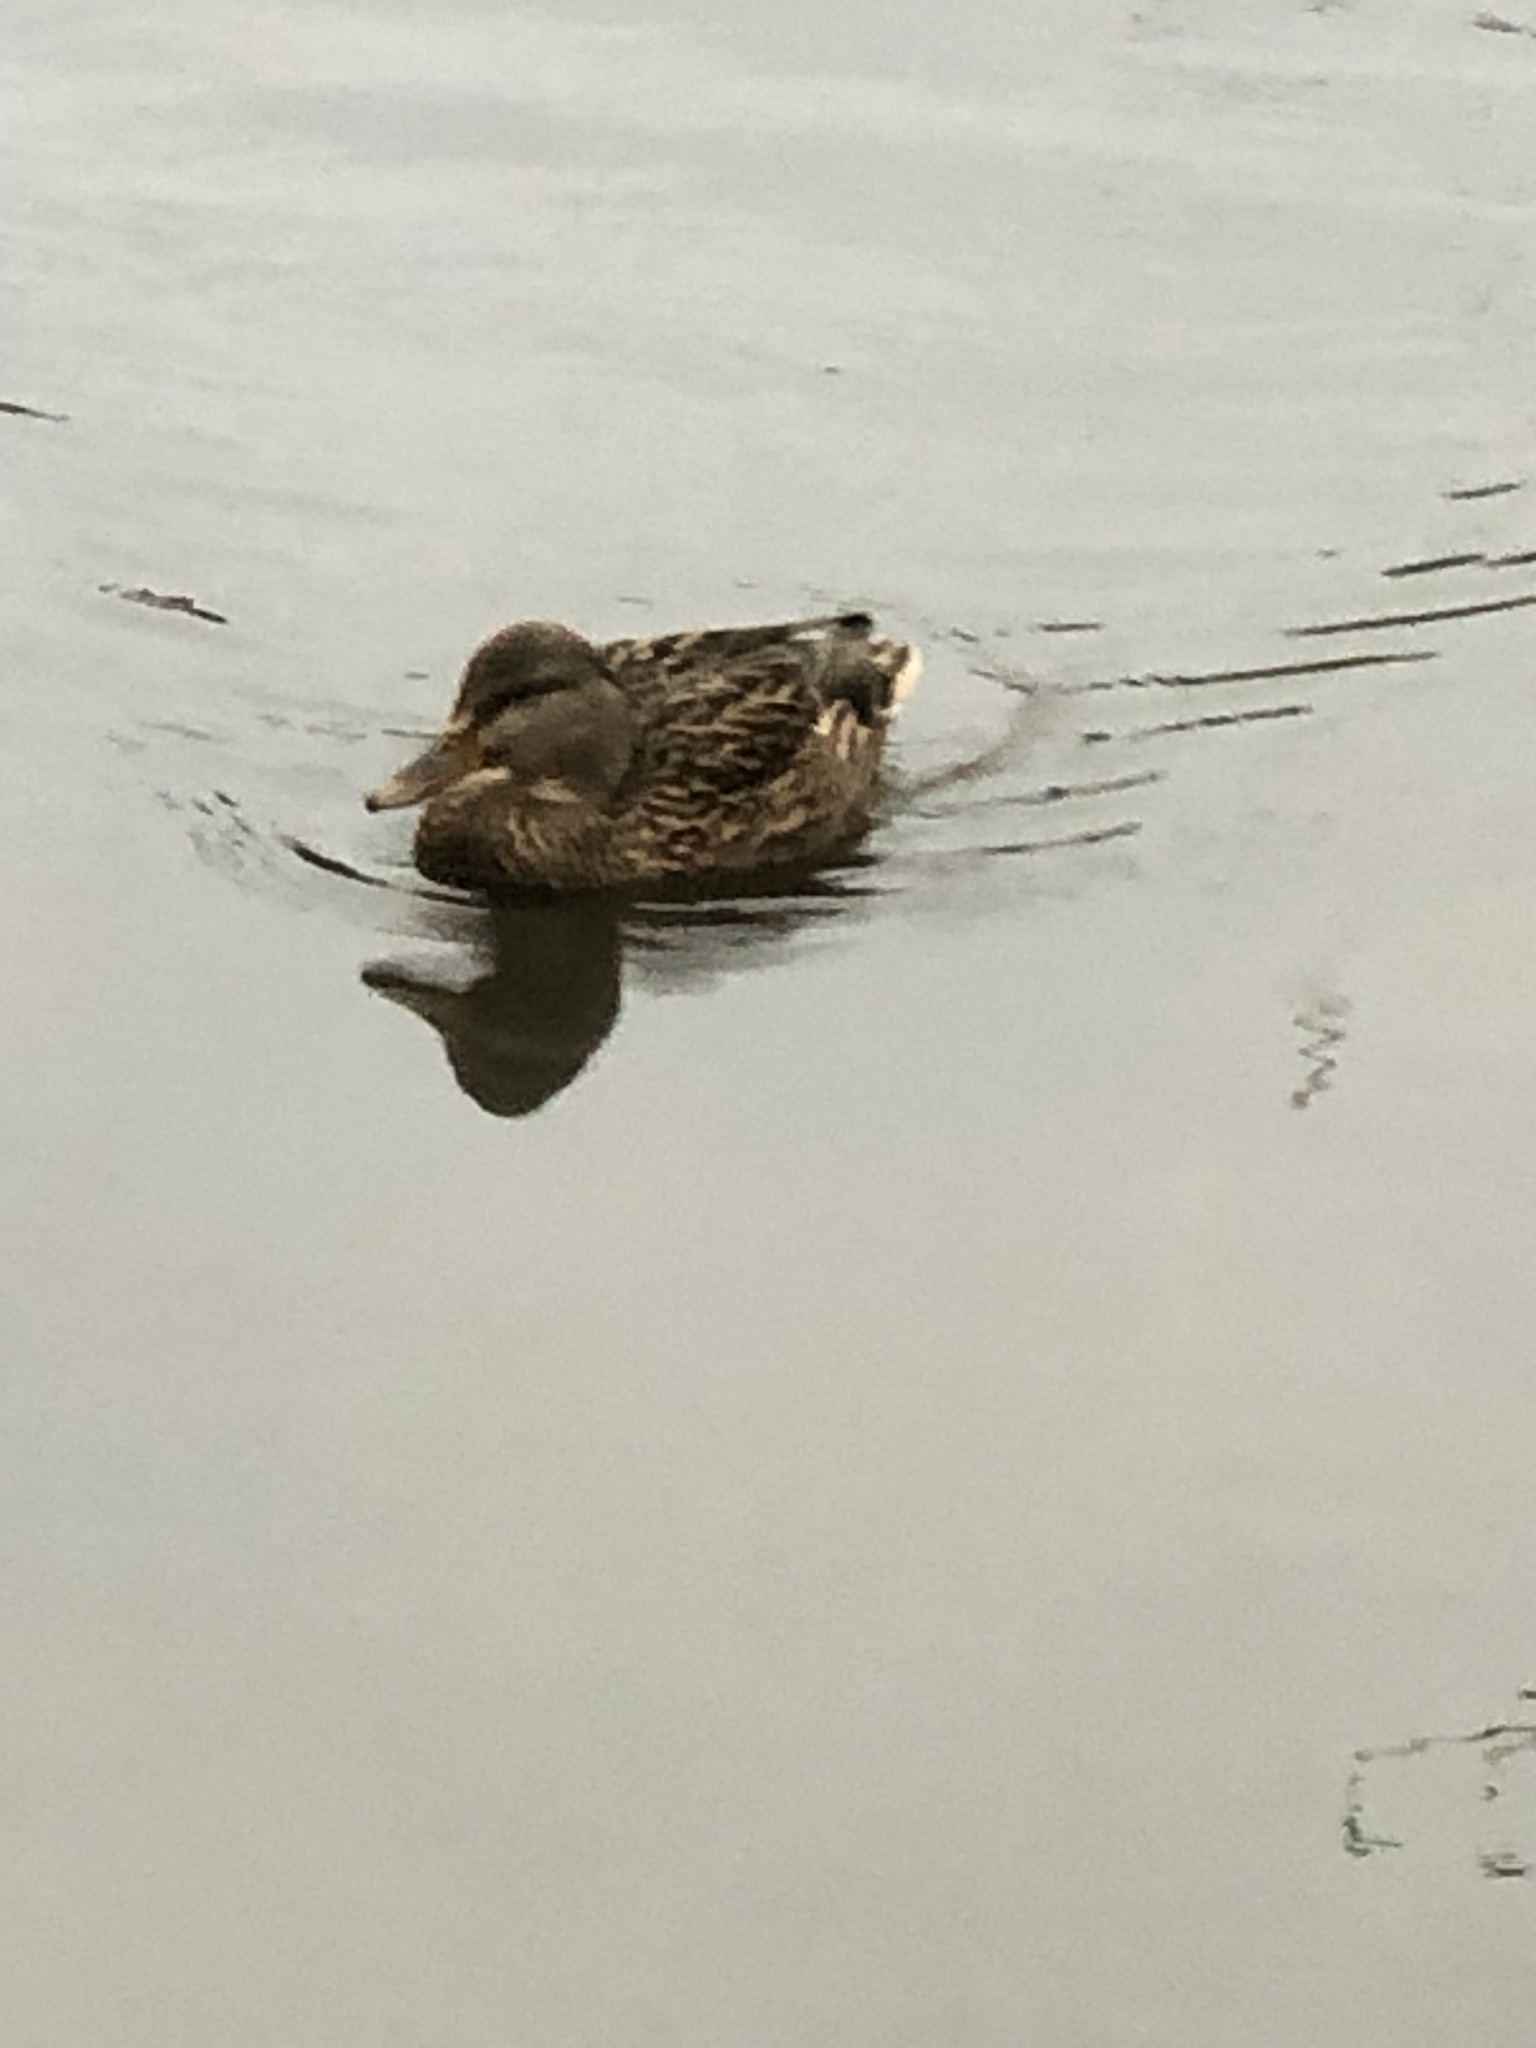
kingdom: Animalia
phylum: Chordata
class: Aves
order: Anseriformes
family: Anatidae
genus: Anas
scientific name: Anas platyrhynchos
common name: Mallard
